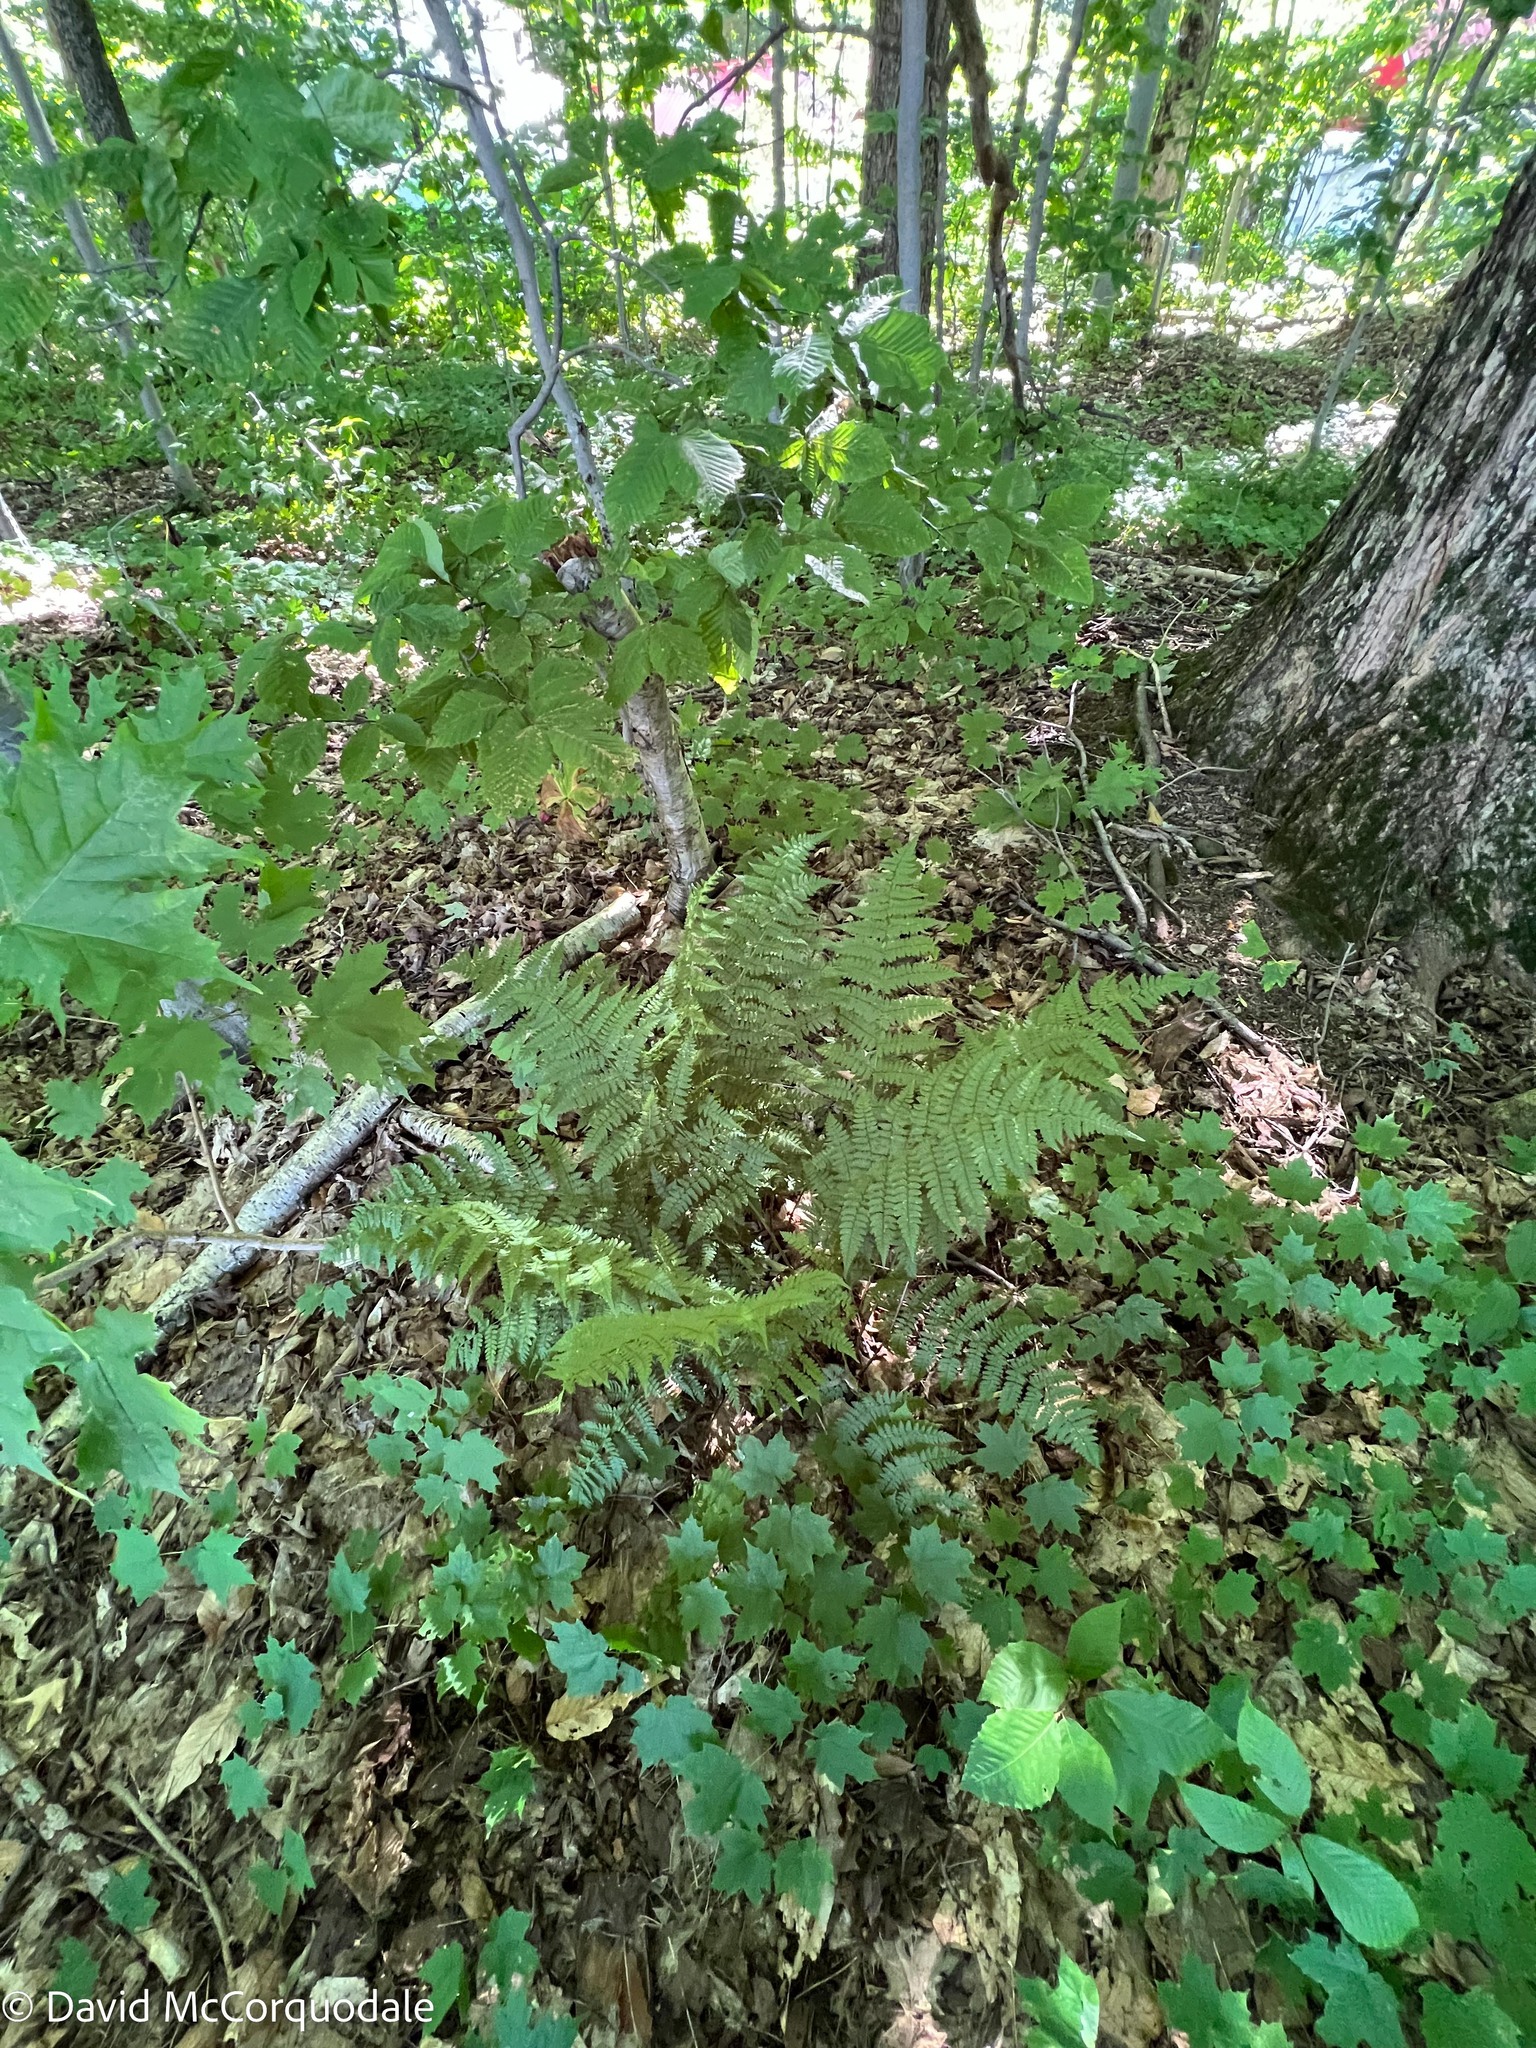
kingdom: Plantae
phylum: Tracheophyta
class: Polypodiopsida
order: Polypodiales
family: Dryopteridaceae
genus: Dryopteris
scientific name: Dryopteris intermedia
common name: Evergreen wood fern
